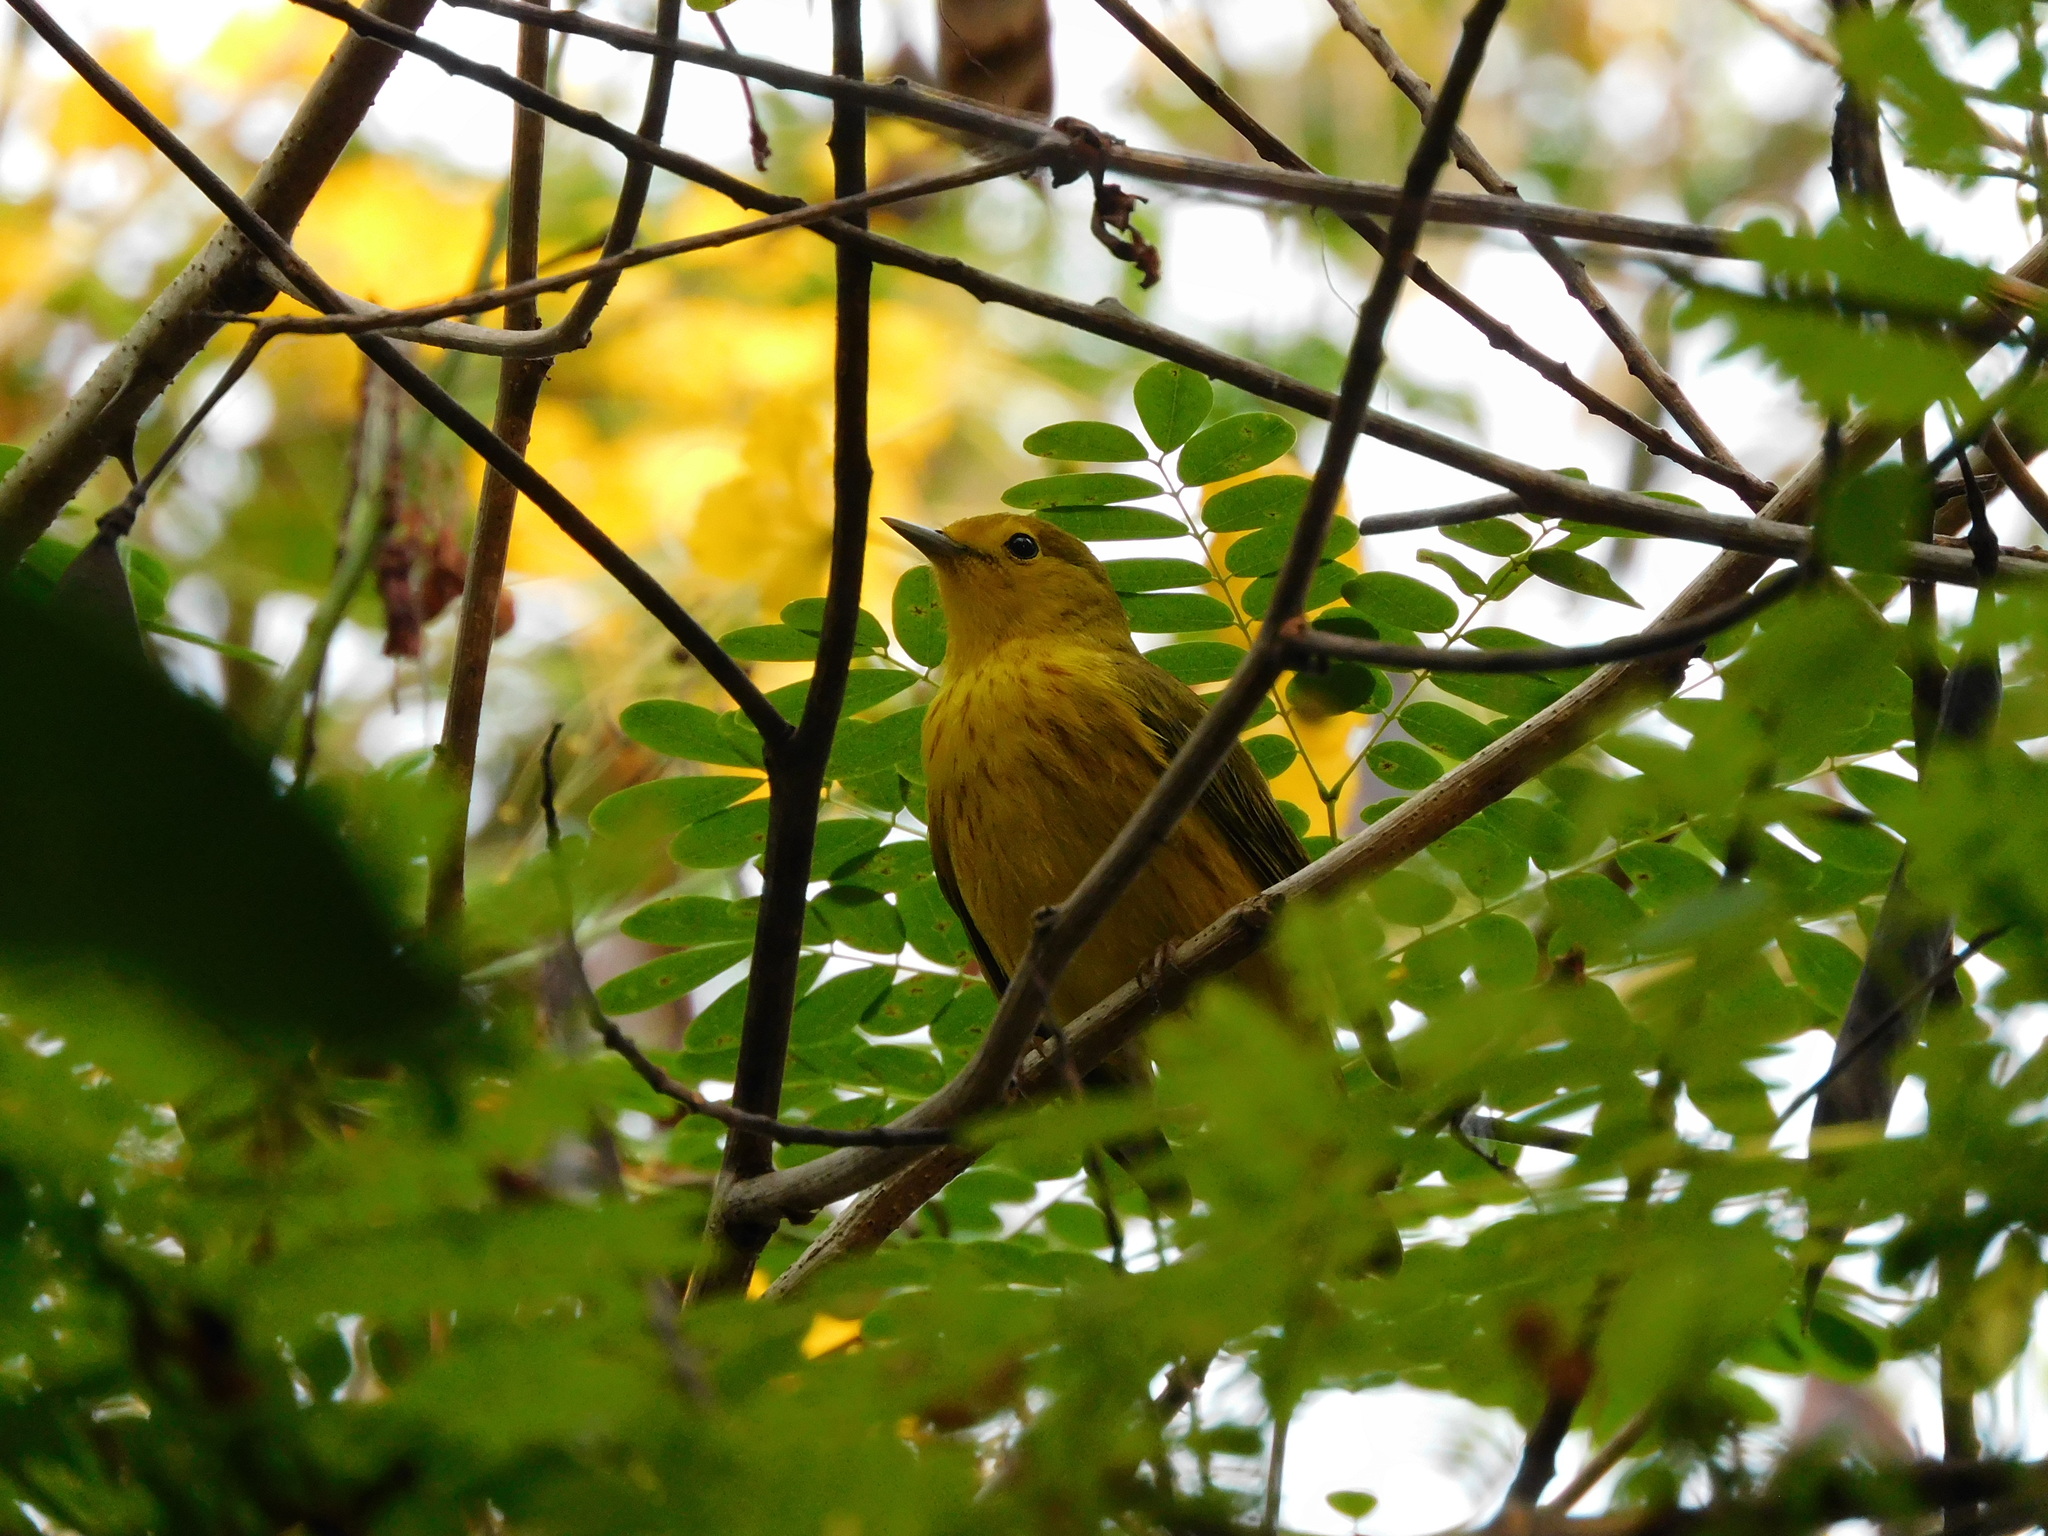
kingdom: Animalia
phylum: Chordata
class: Aves
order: Passeriformes
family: Parulidae
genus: Setophaga
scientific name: Setophaga petechia
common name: Yellow warbler
